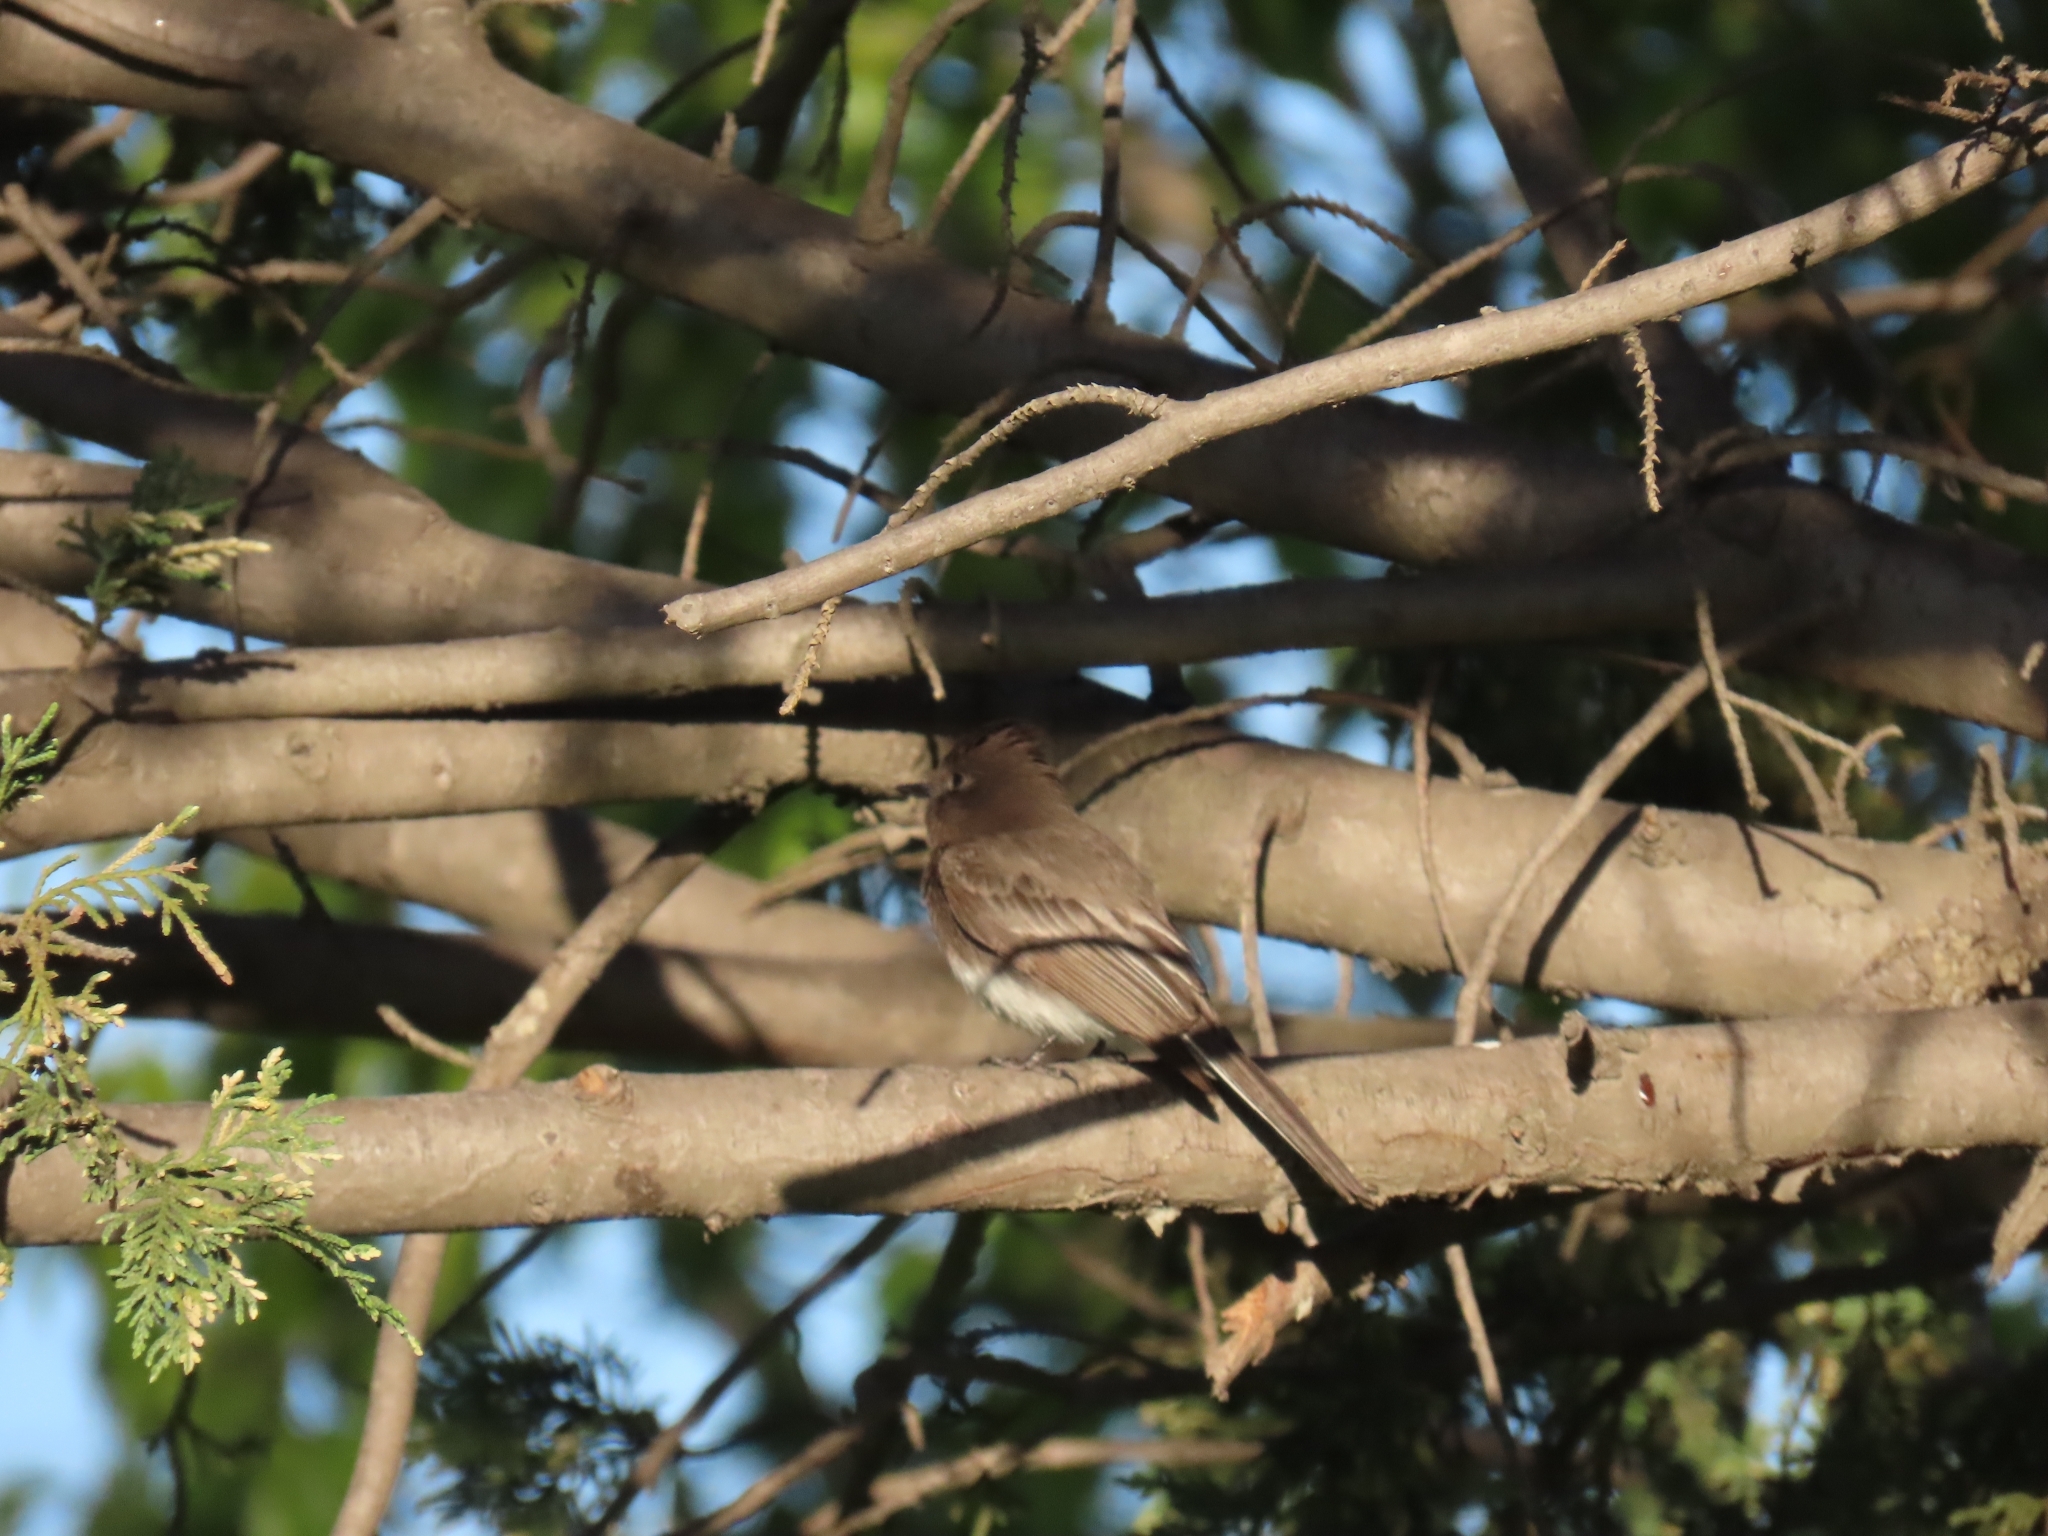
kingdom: Animalia
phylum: Chordata
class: Aves
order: Passeriformes
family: Tyrannidae
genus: Sayornis
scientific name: Sayornis nigricans
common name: Black phoebe
